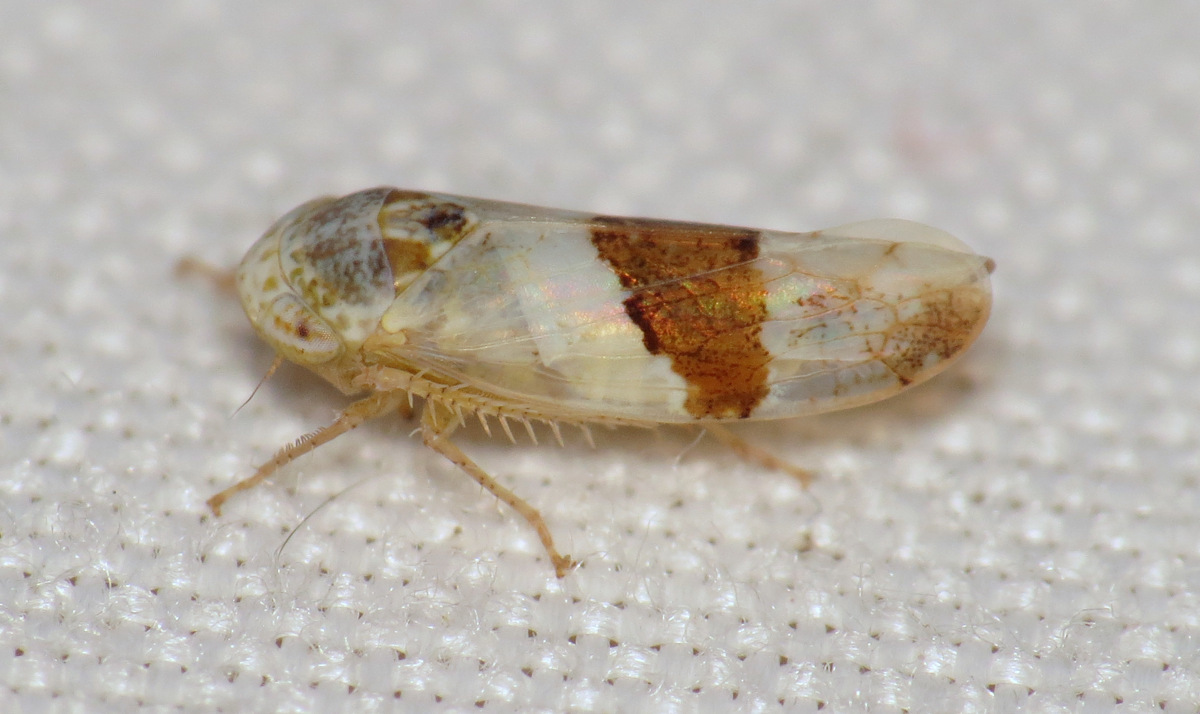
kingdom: Animalia
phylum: Arthropoda
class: Insecta
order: Hemiptera
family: Cicadellidae
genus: Norvellina
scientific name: Norvellina seminuda
